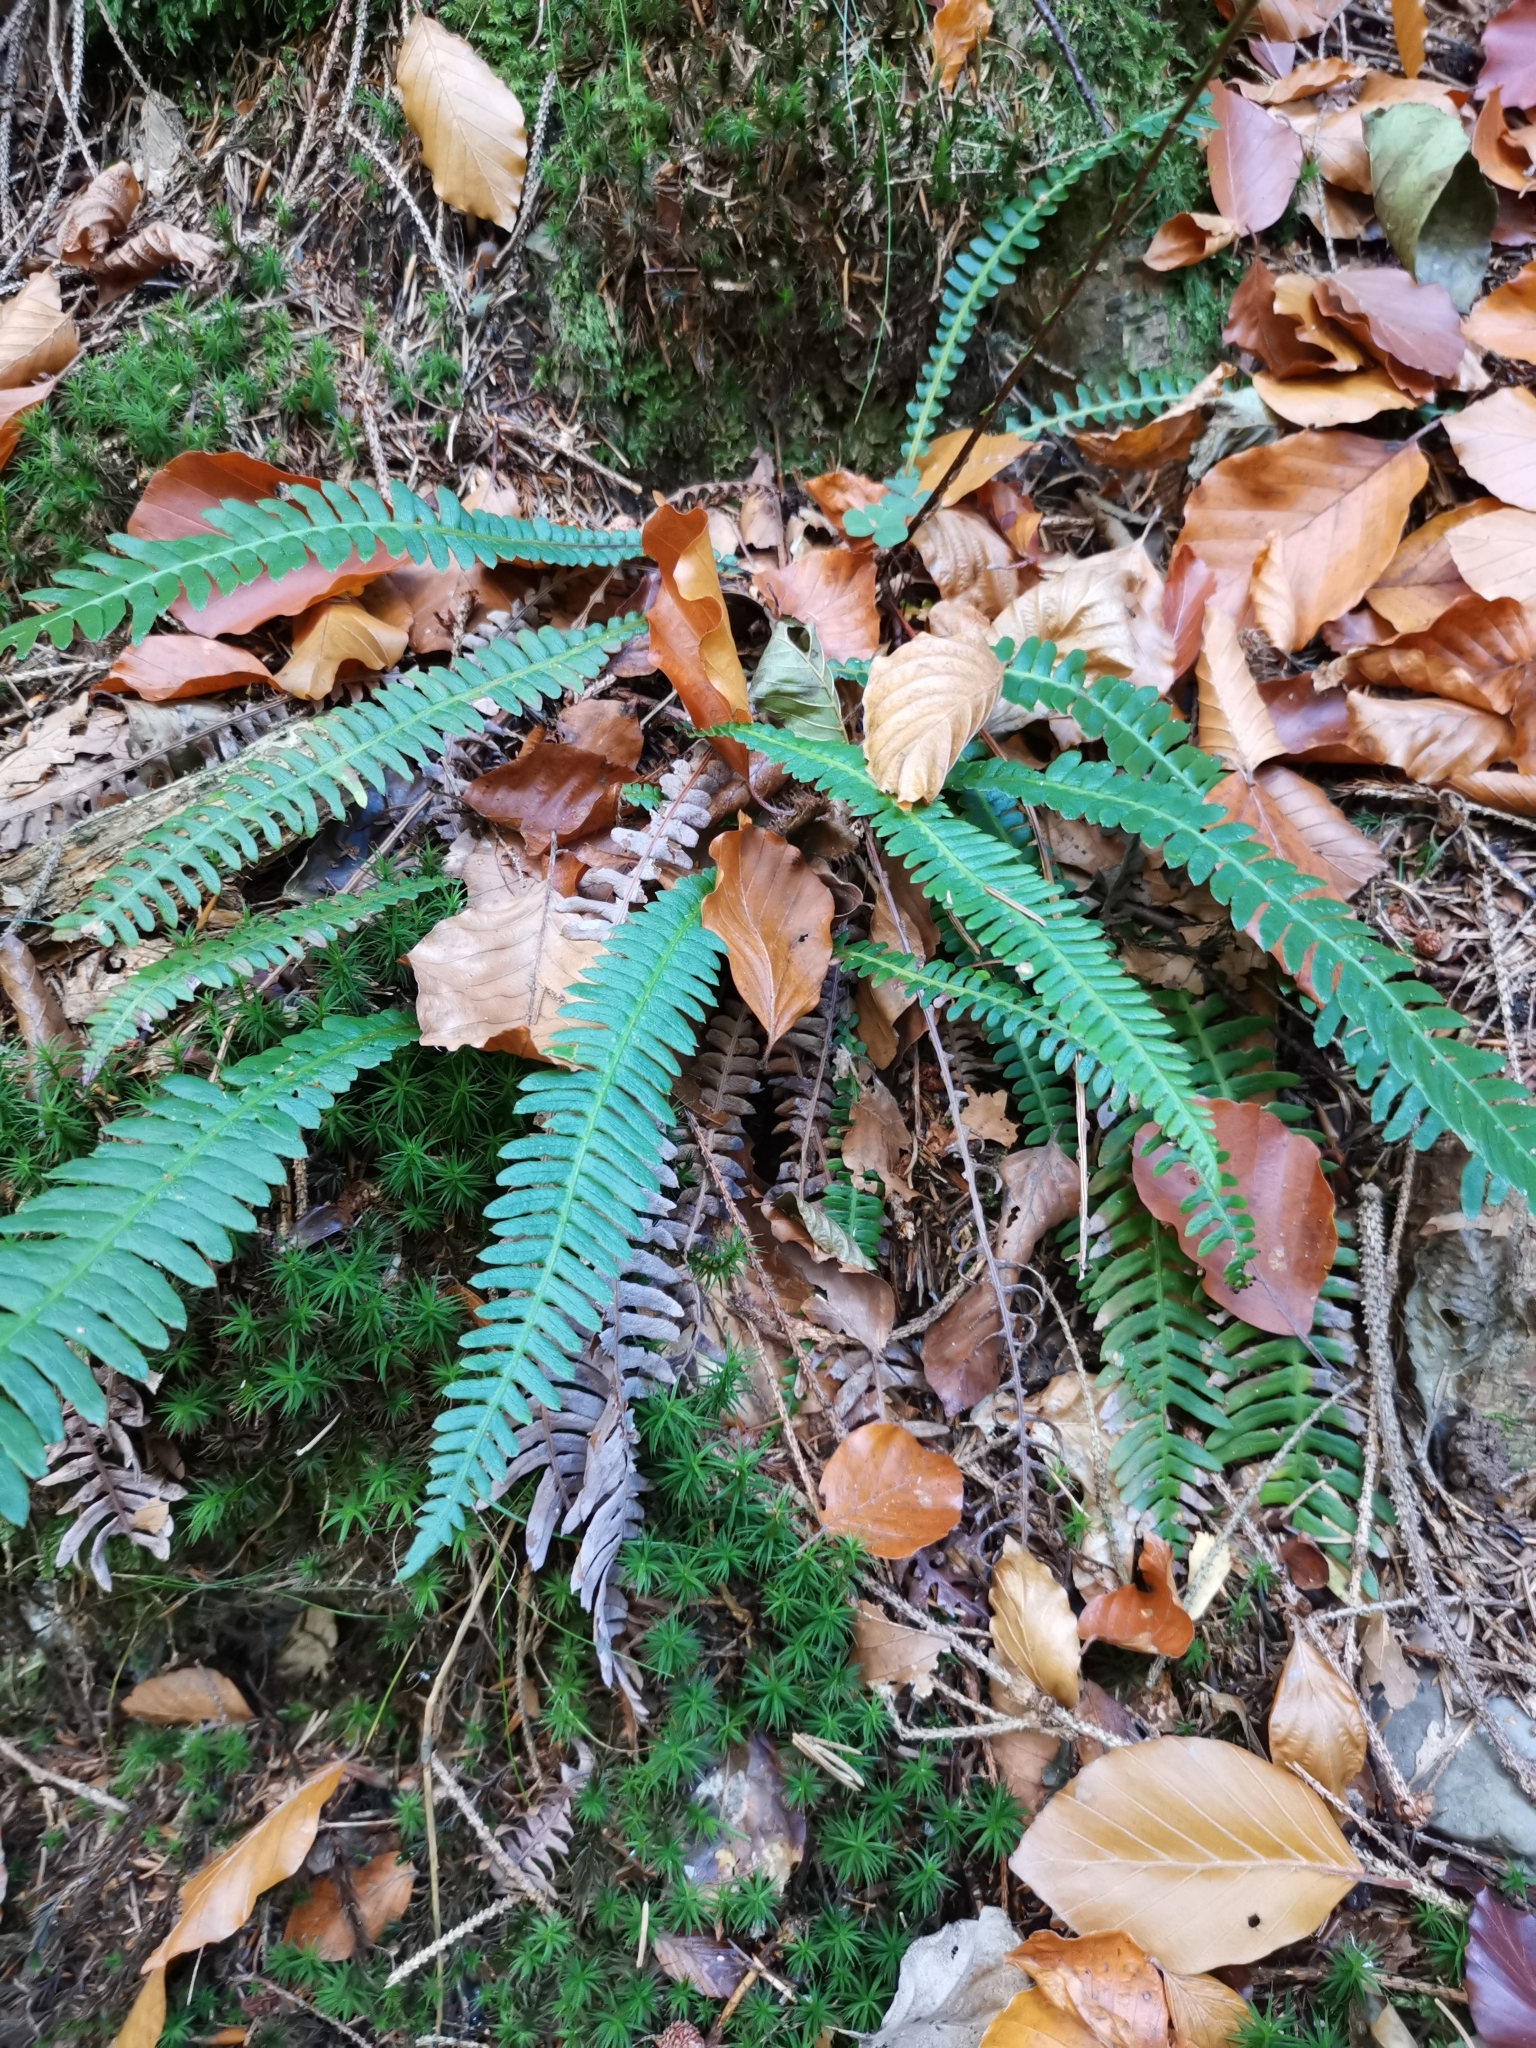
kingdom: Plantae
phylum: Tracheophyta
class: Polypodiopsida
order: Polypodiales
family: Blechnaceae
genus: Struthiopteris
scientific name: Struthiopteris spicant
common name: Deer fern
